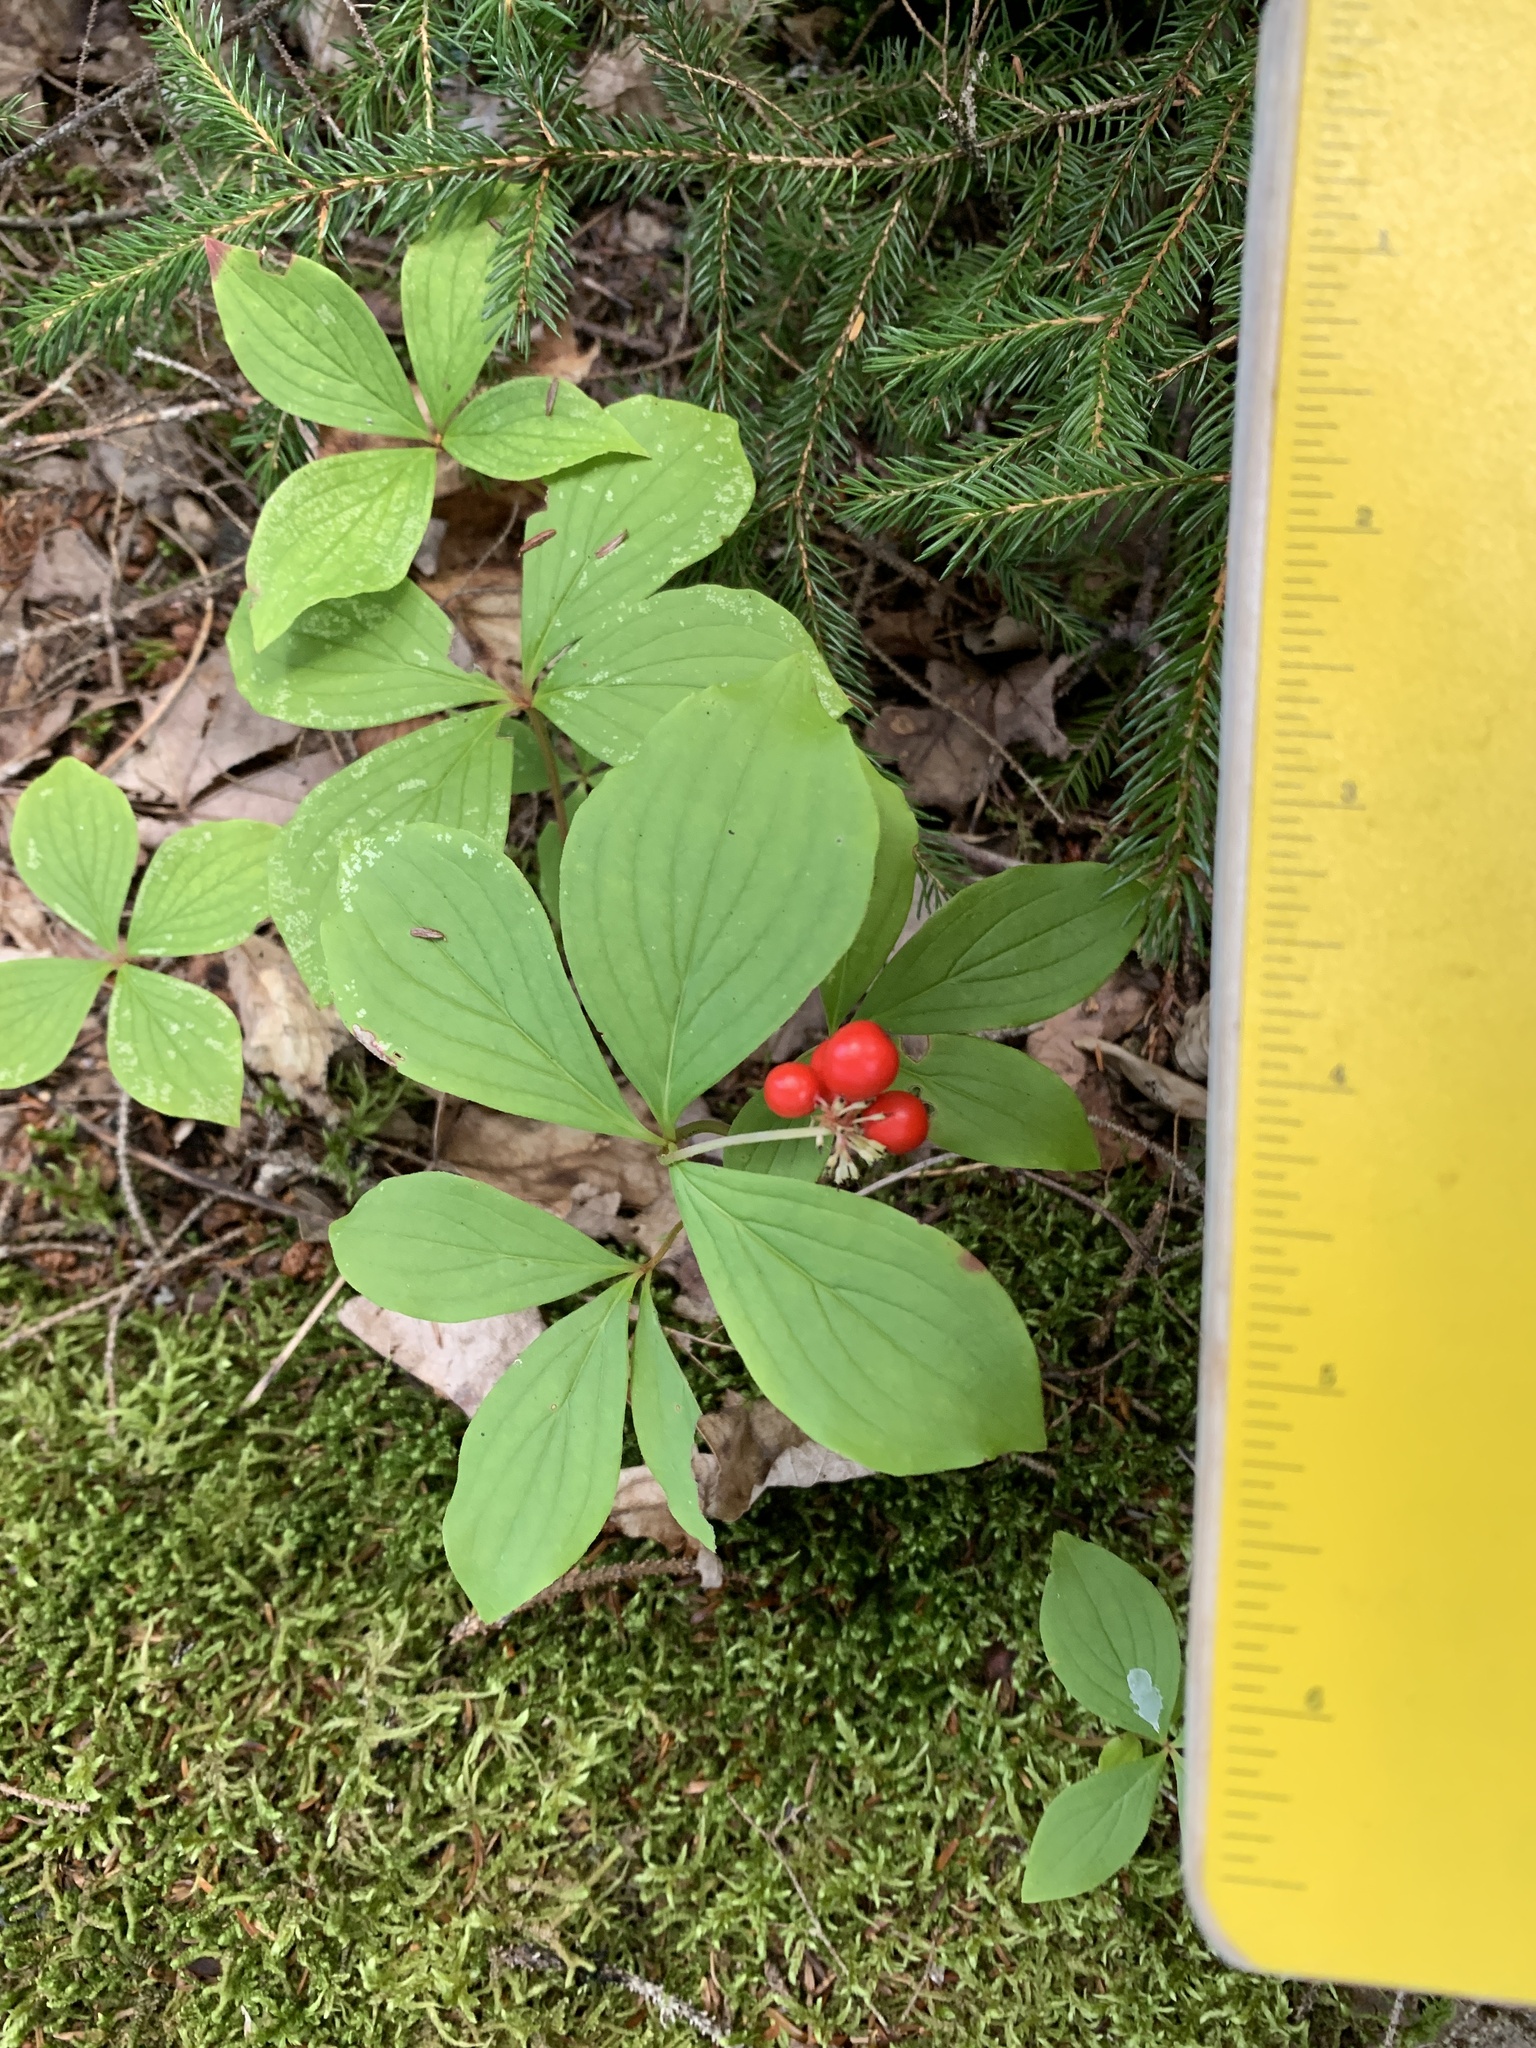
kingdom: Plantae
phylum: Tracheophyta
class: Magnoliopsida
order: Cornales
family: Cornaceae
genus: Cornus
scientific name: Cornus canadensis
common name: Creeping dogwood
